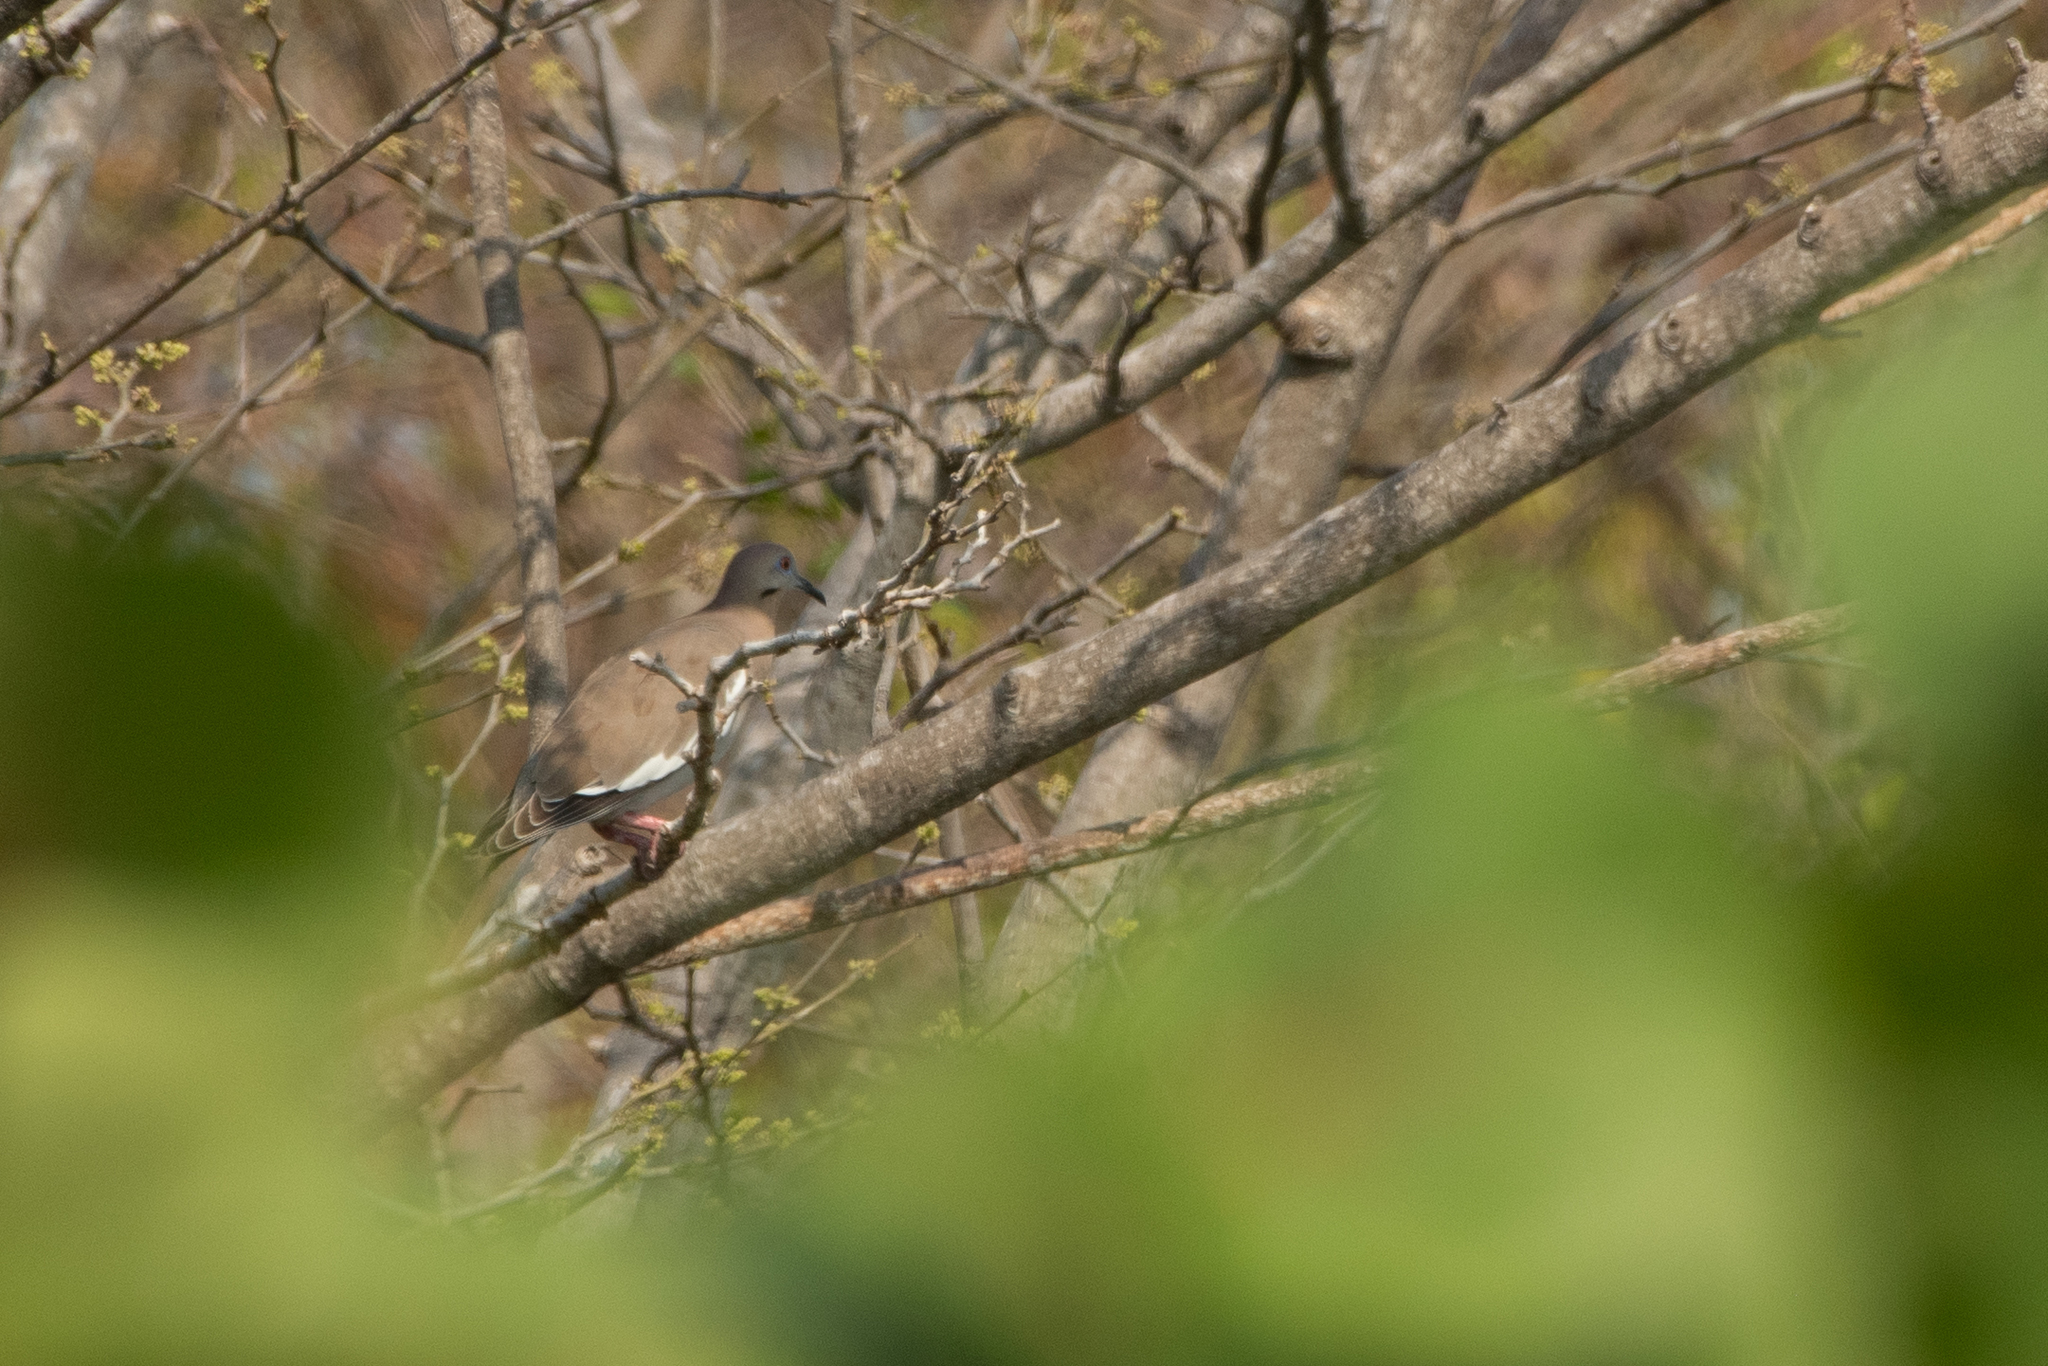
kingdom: Animalia
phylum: Chordata
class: Aves
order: Columbiformes
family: Columbidae
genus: Zenaida
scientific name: Zenaida asiatica
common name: White-winged dove
